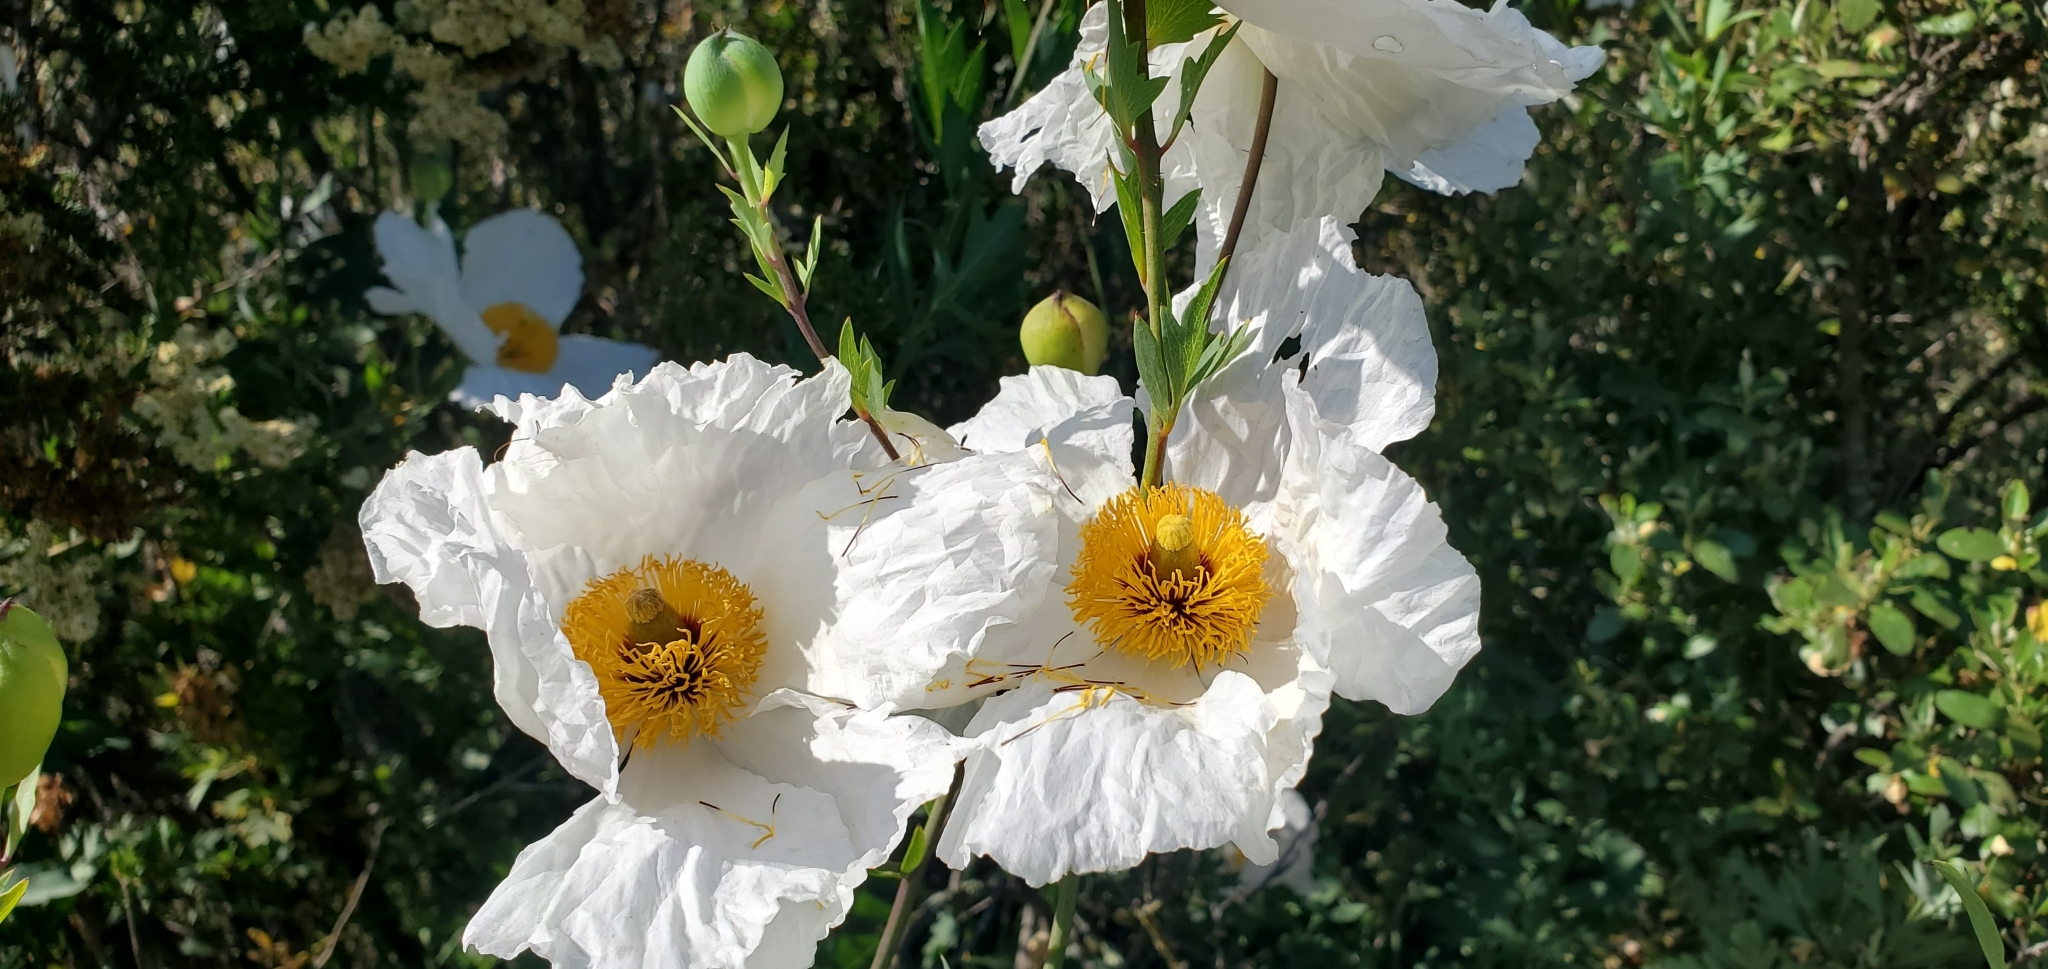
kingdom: Plantae
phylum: Tracheophyta
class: Magnoliopsida
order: Ranunculales
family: Papaveraceae
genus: Romneya
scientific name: Romneya coulteri
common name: California tree-poppy
